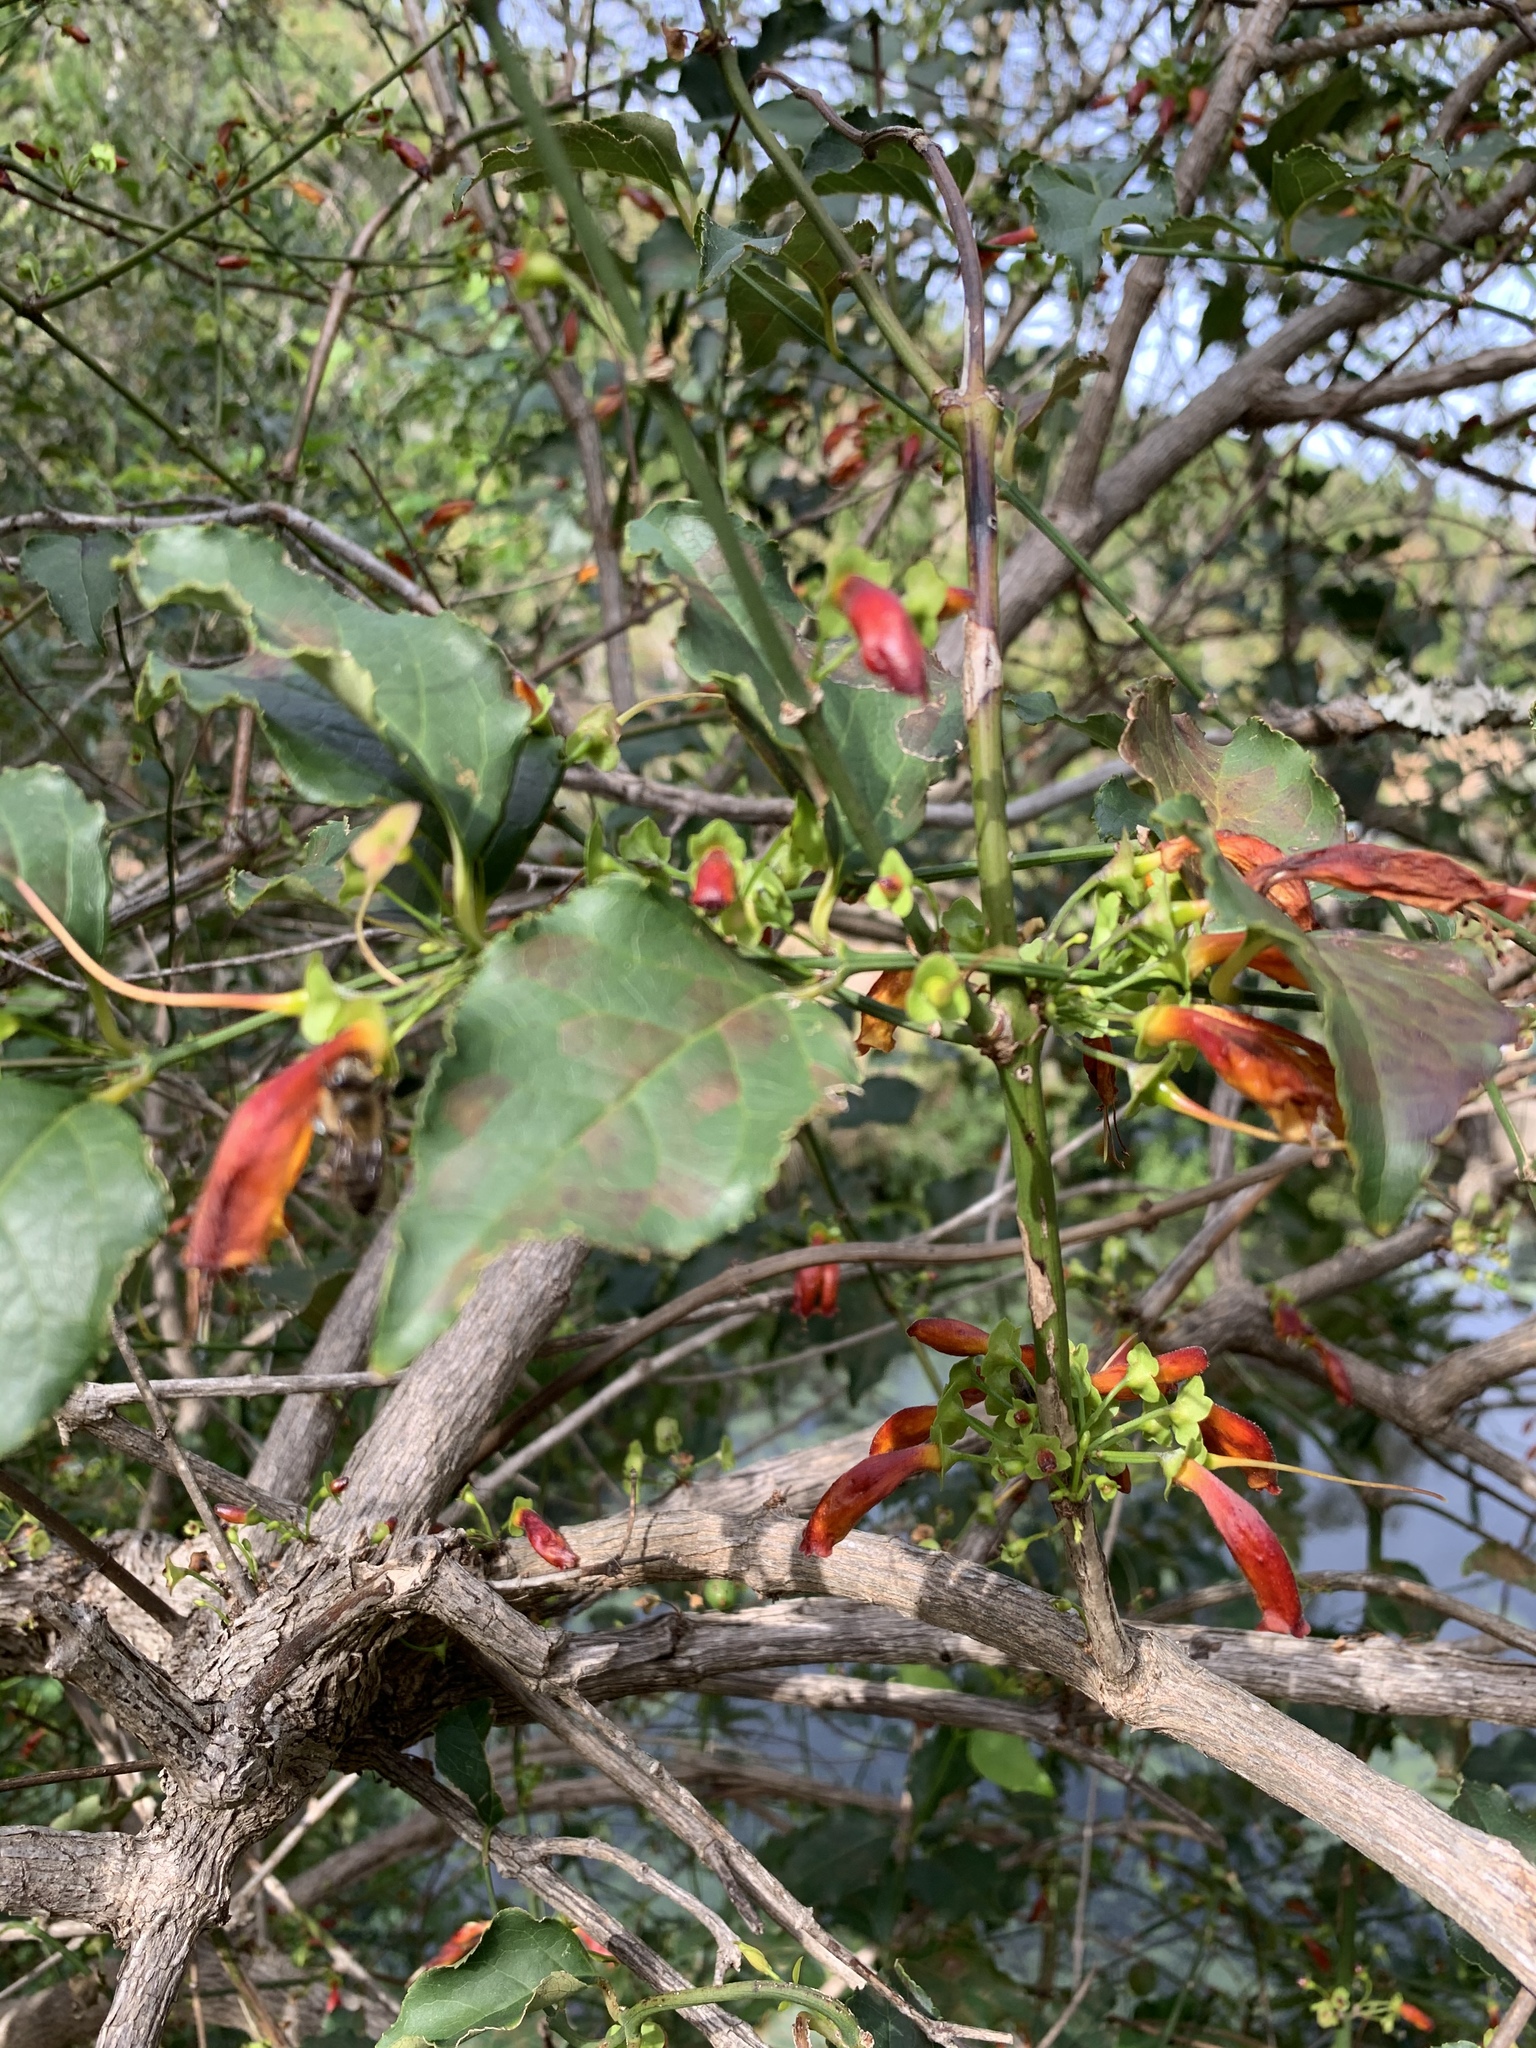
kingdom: Plantae
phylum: Tracheophyta
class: Magnoliopsida
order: Lamiales
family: Stilbaceae
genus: Halleria
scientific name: Halleria lucida
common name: Tree fuschia
